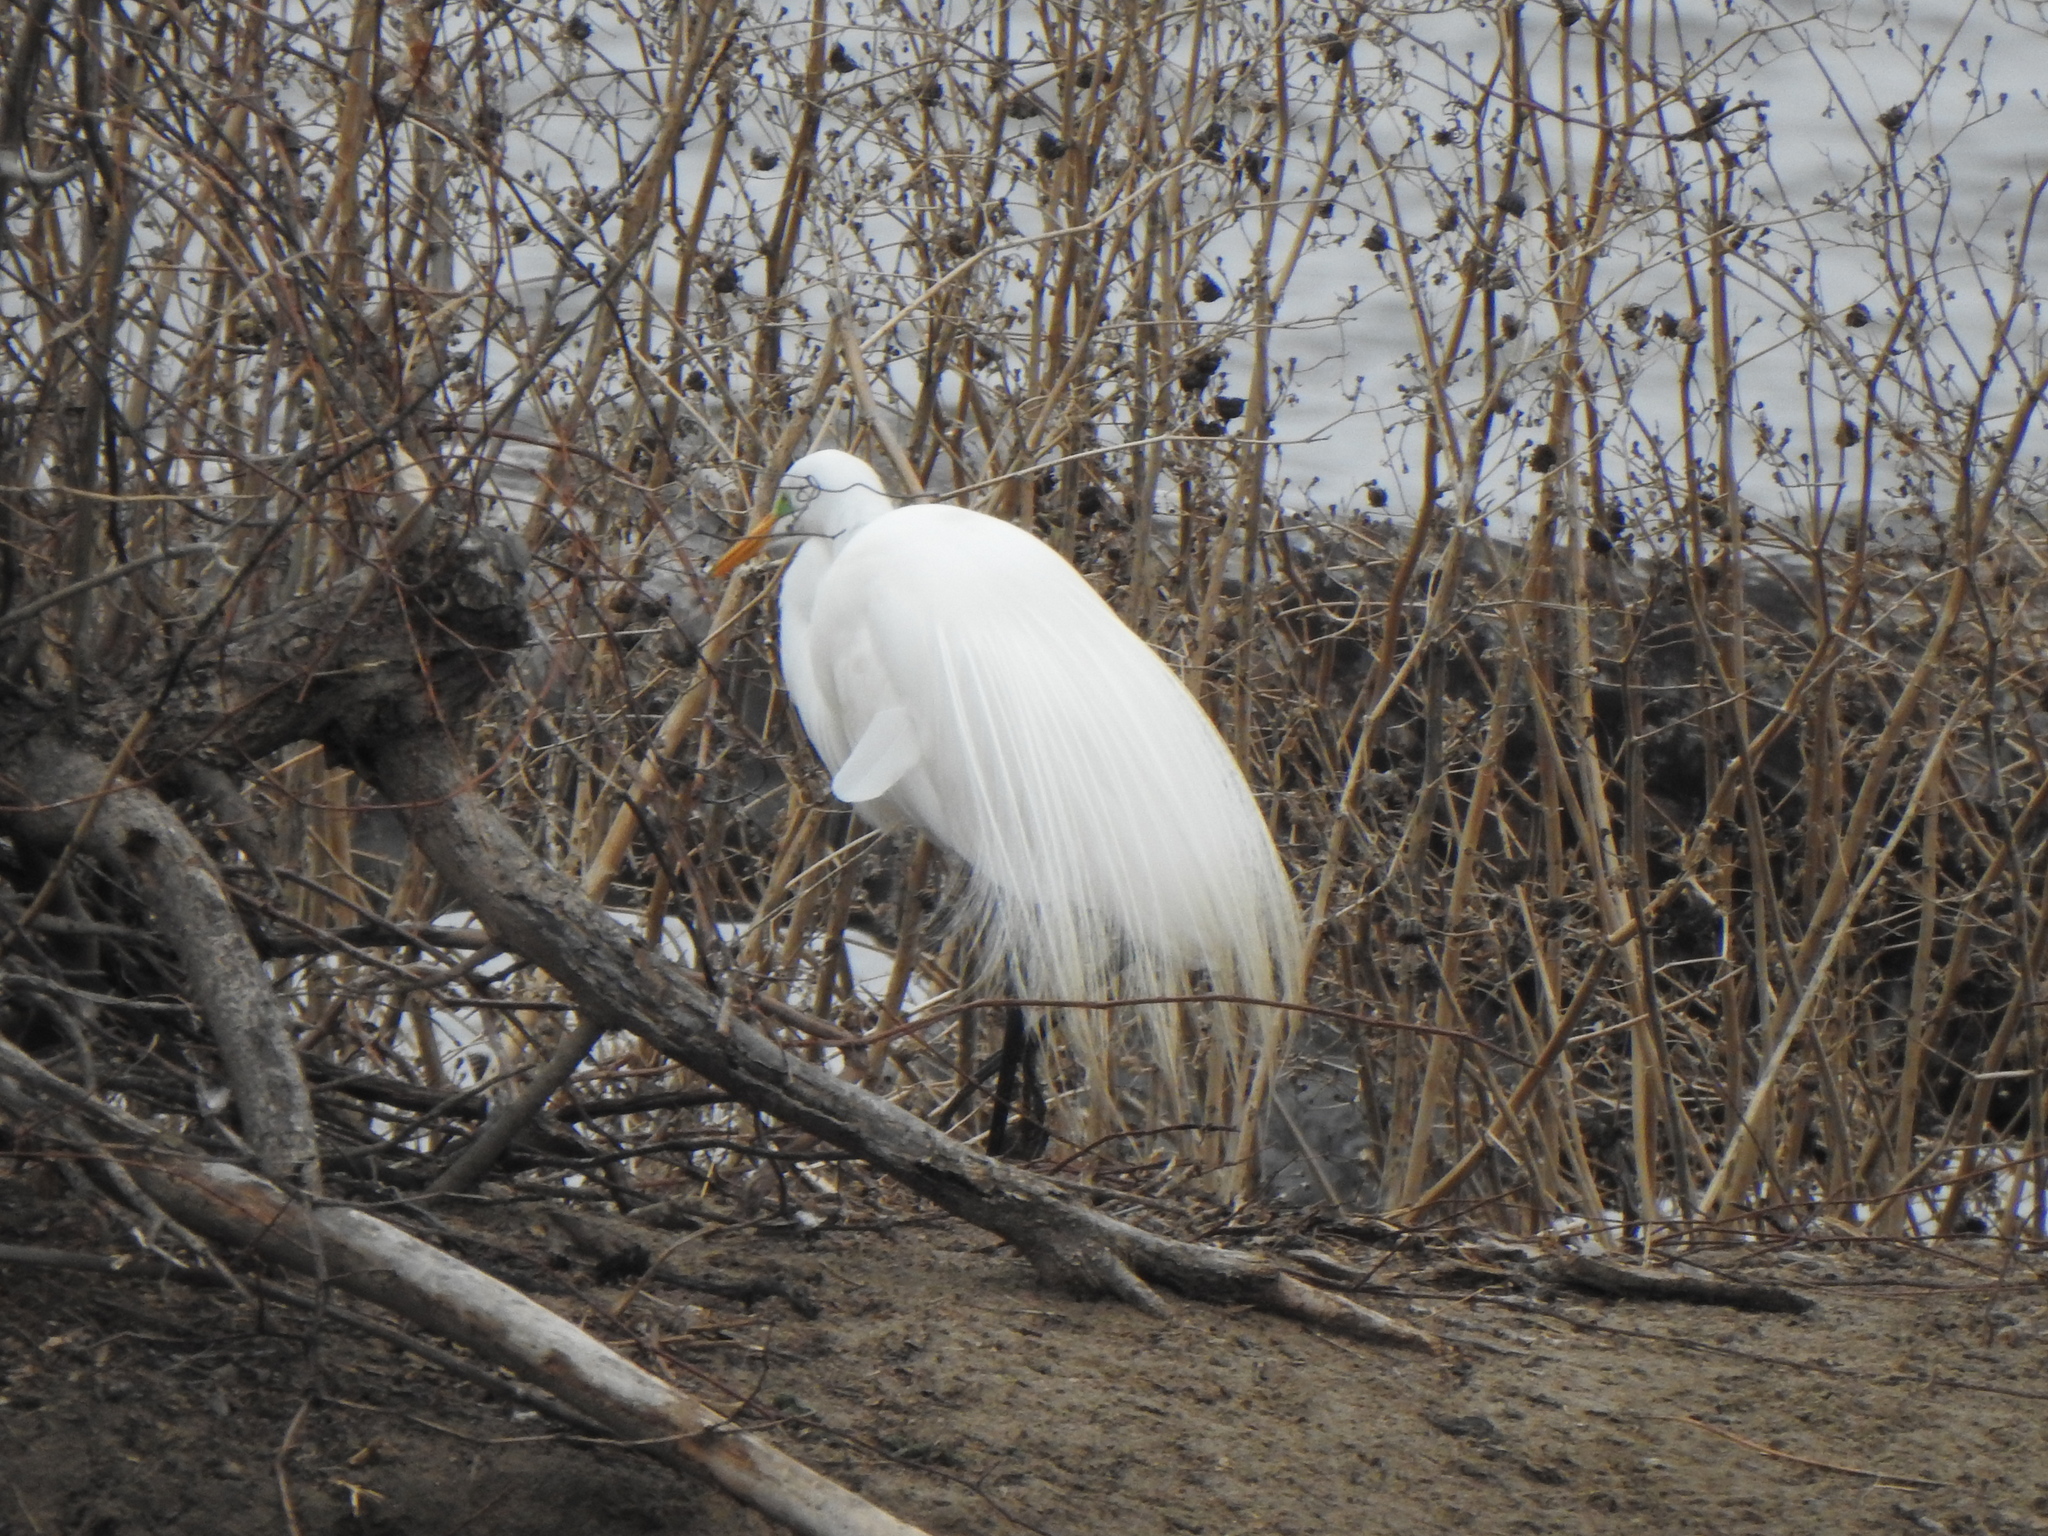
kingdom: Animalia
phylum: Chordata
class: Aves
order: Pelecaniformes
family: Ardeidae
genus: Ardea
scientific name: Ardea alba
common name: Great egret
